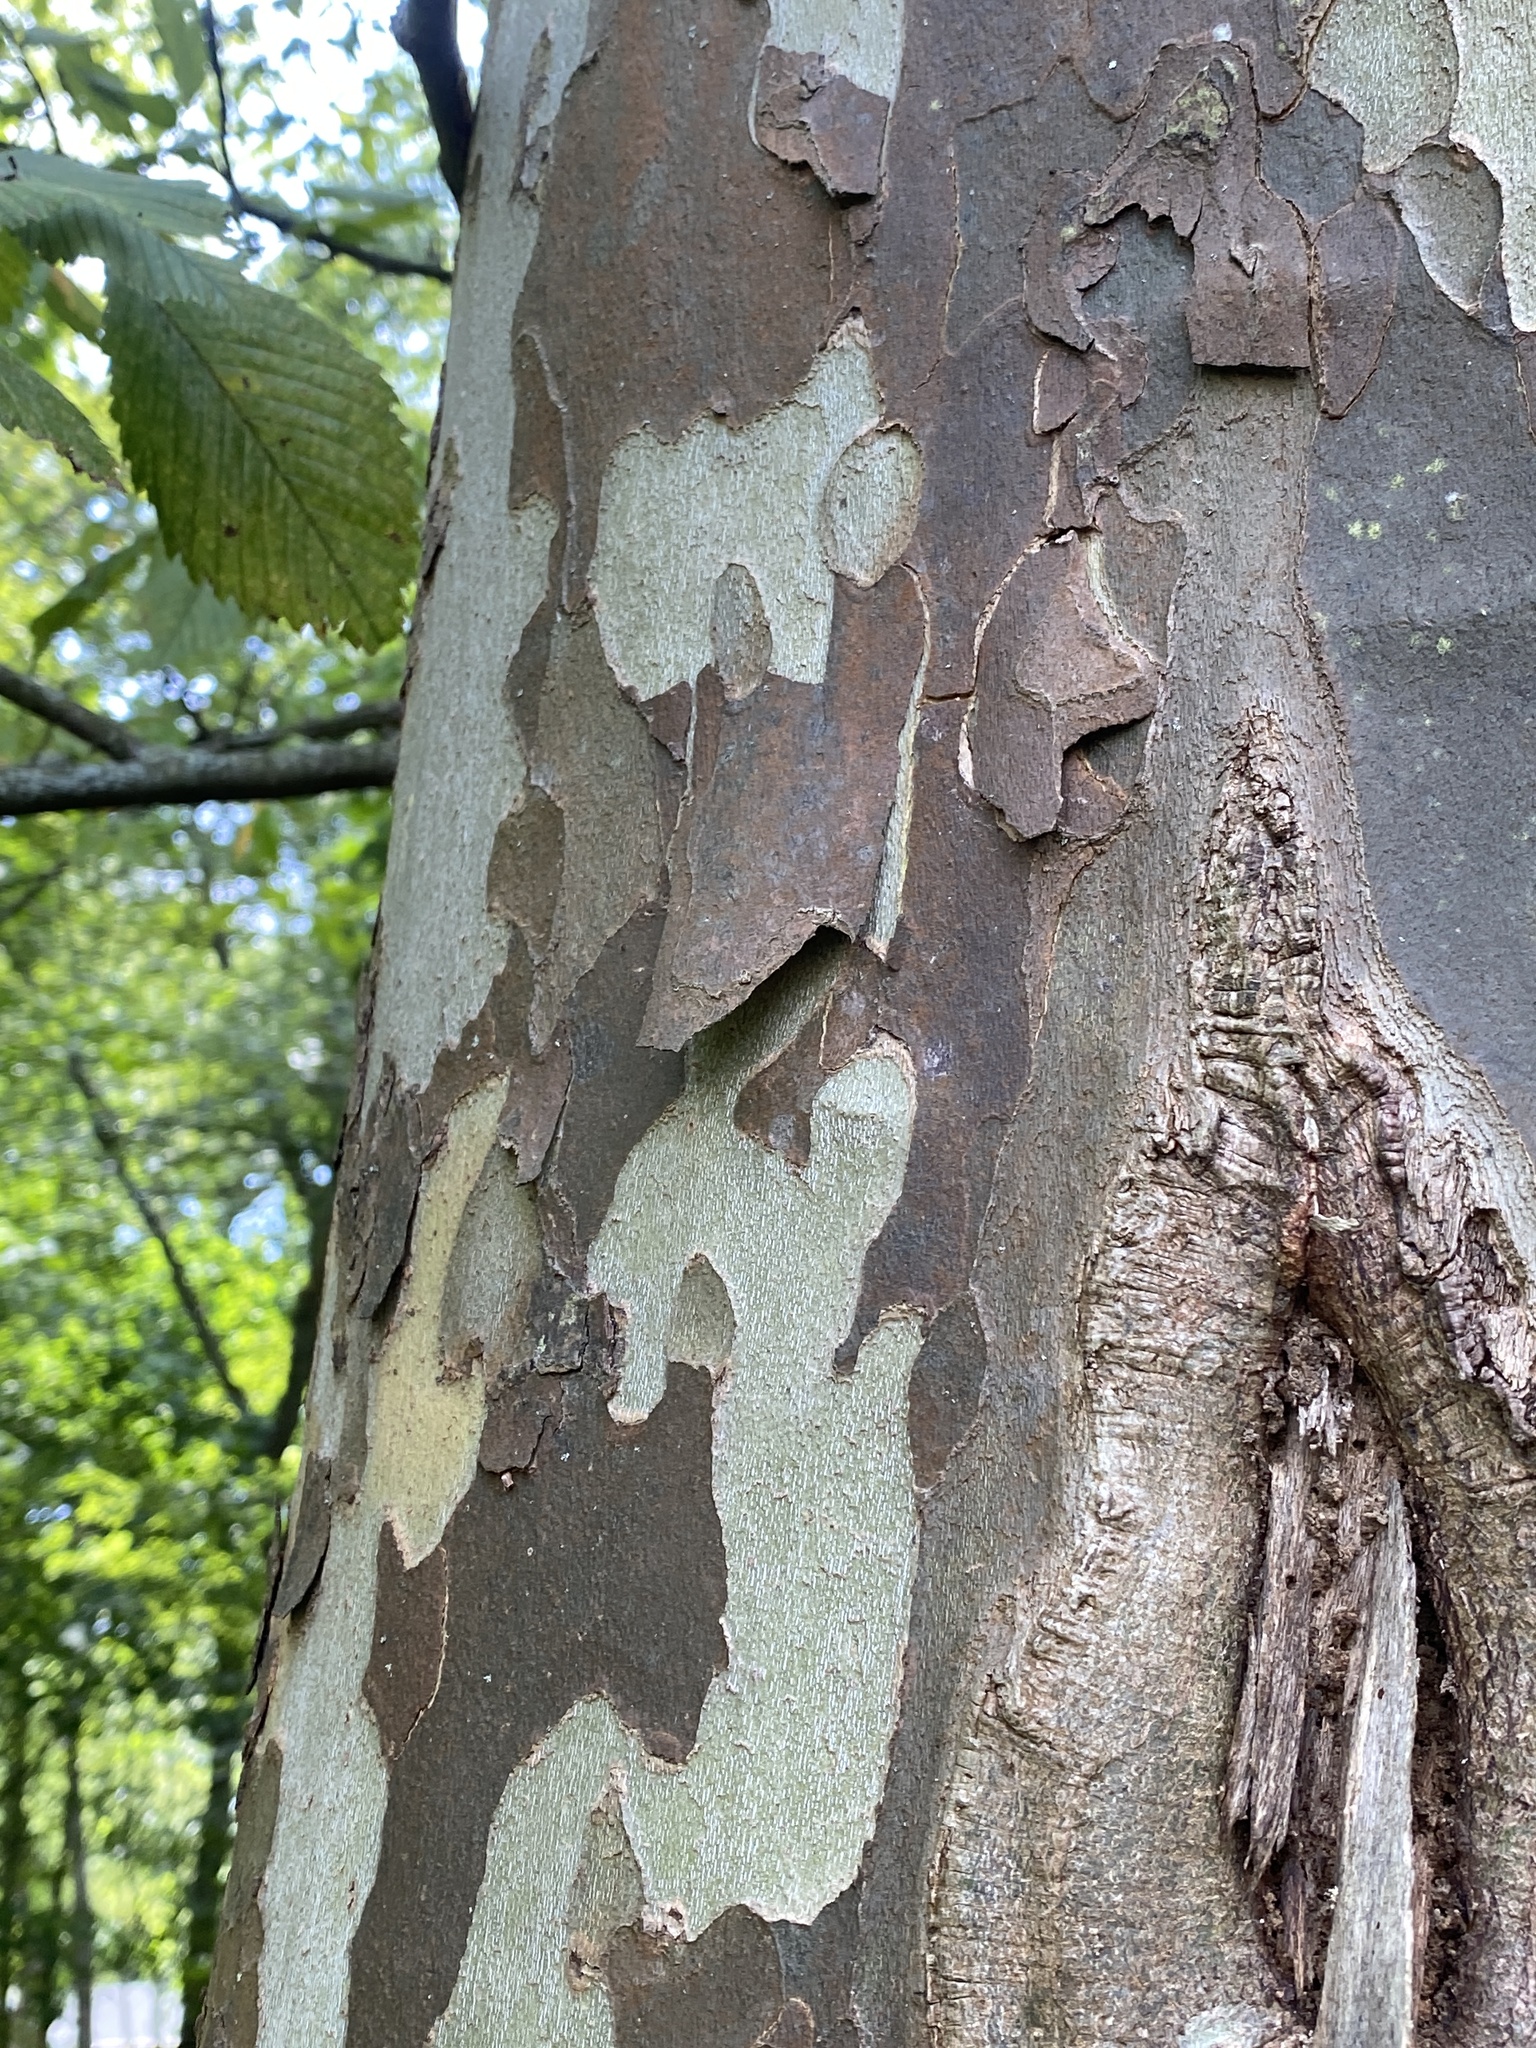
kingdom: Plantae
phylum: Tracheophyta
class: Magnoliopsida
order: Proteales
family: Platanaceae
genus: Platanus
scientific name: Platanus occidentalis
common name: American sycamore
